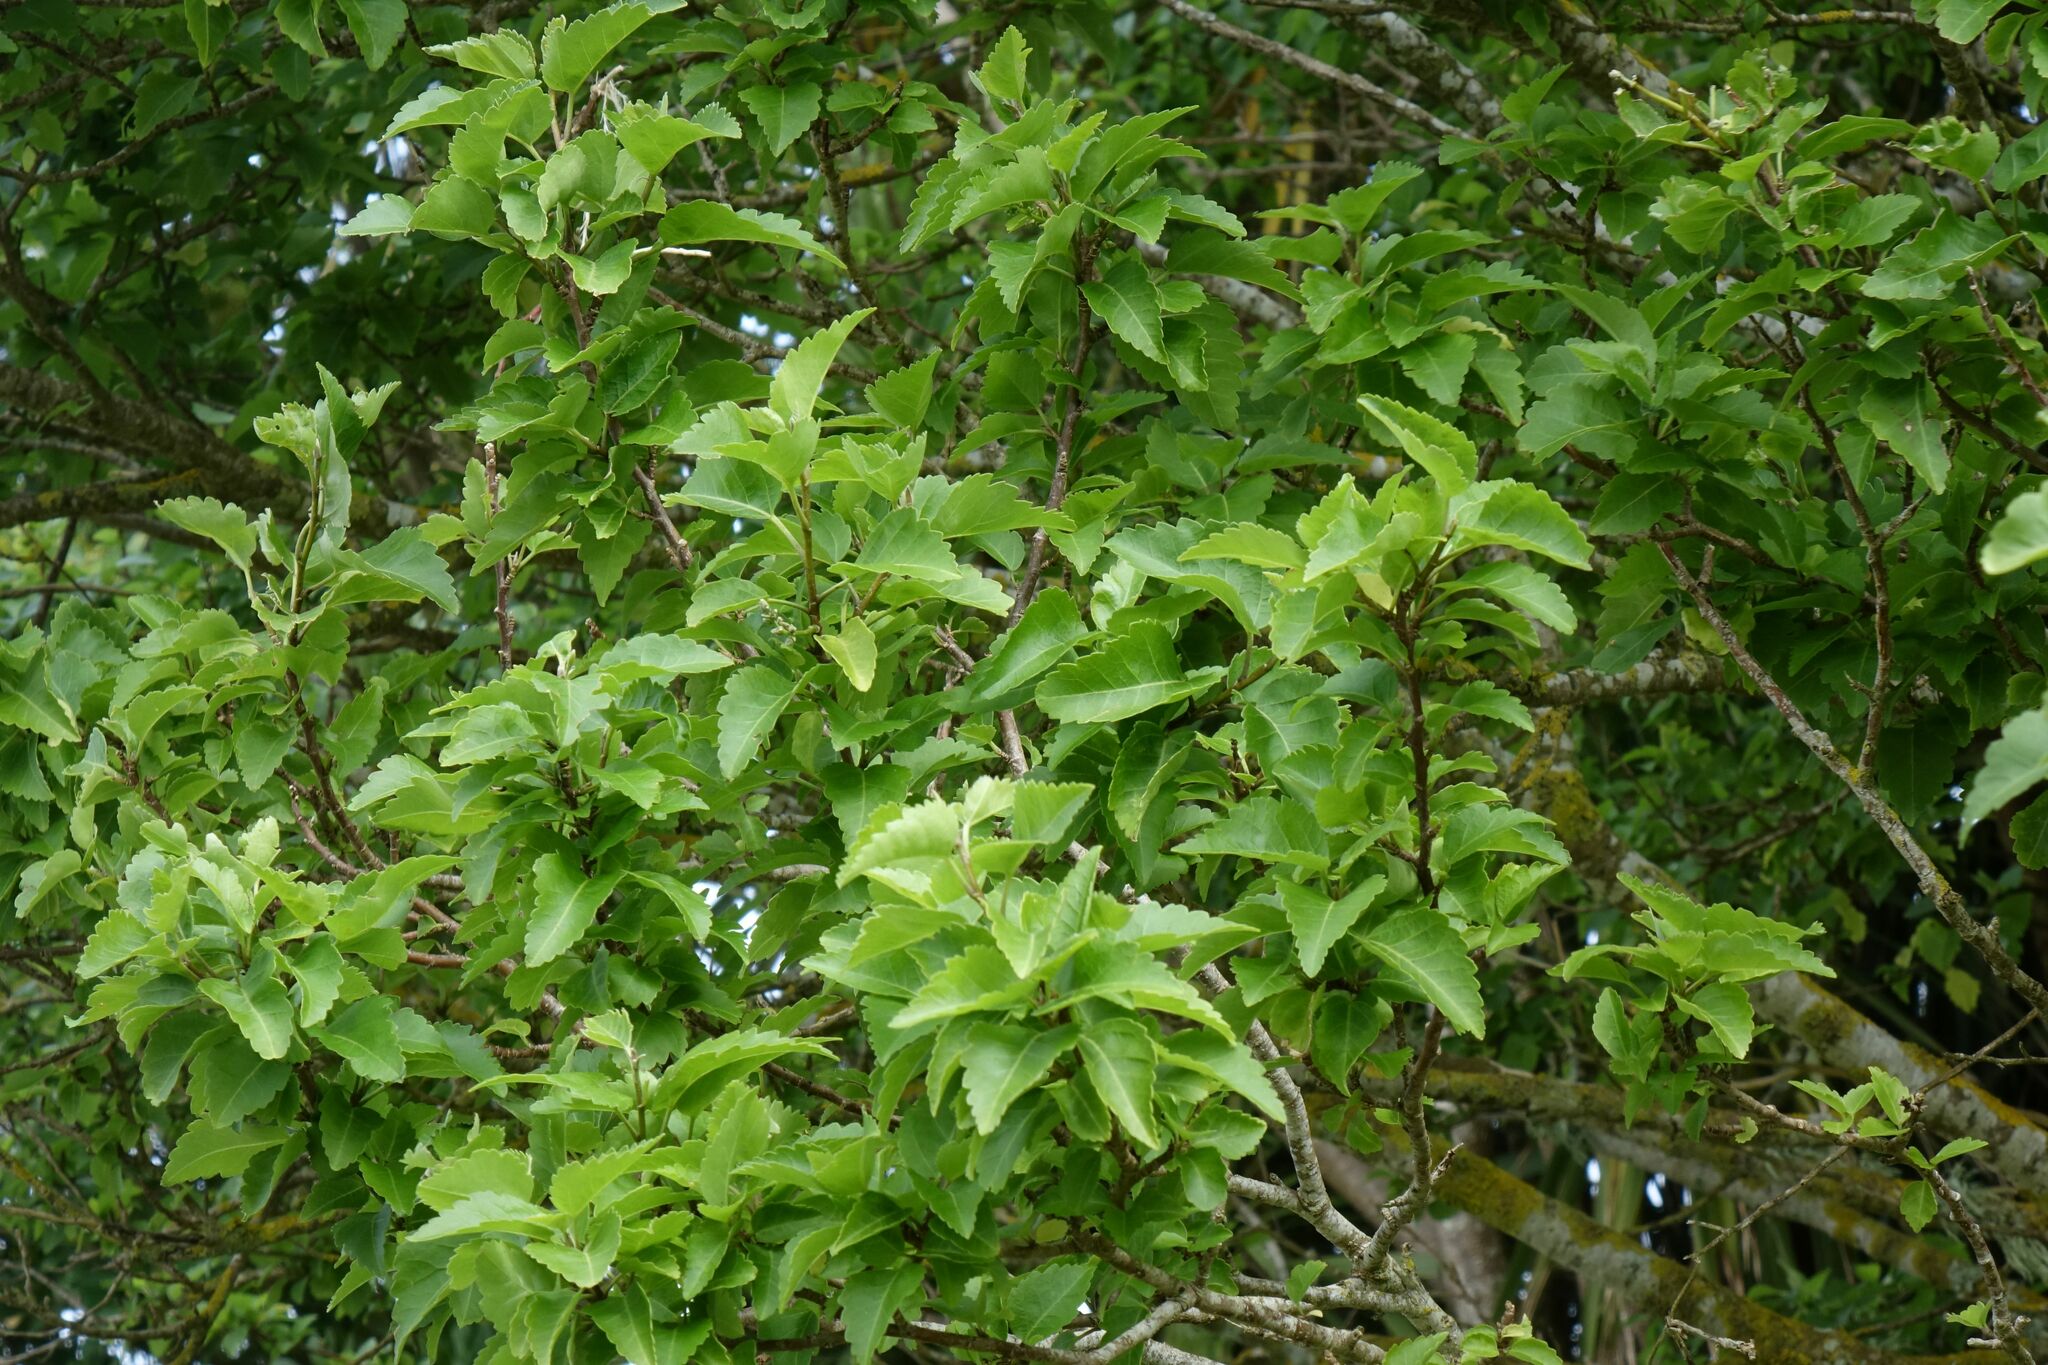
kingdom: Plantae
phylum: Tracheophyta
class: Magnoliopsida
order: Malvales
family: Malvaceae
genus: Plagianthus
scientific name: Plagianthus regius
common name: Manatu
